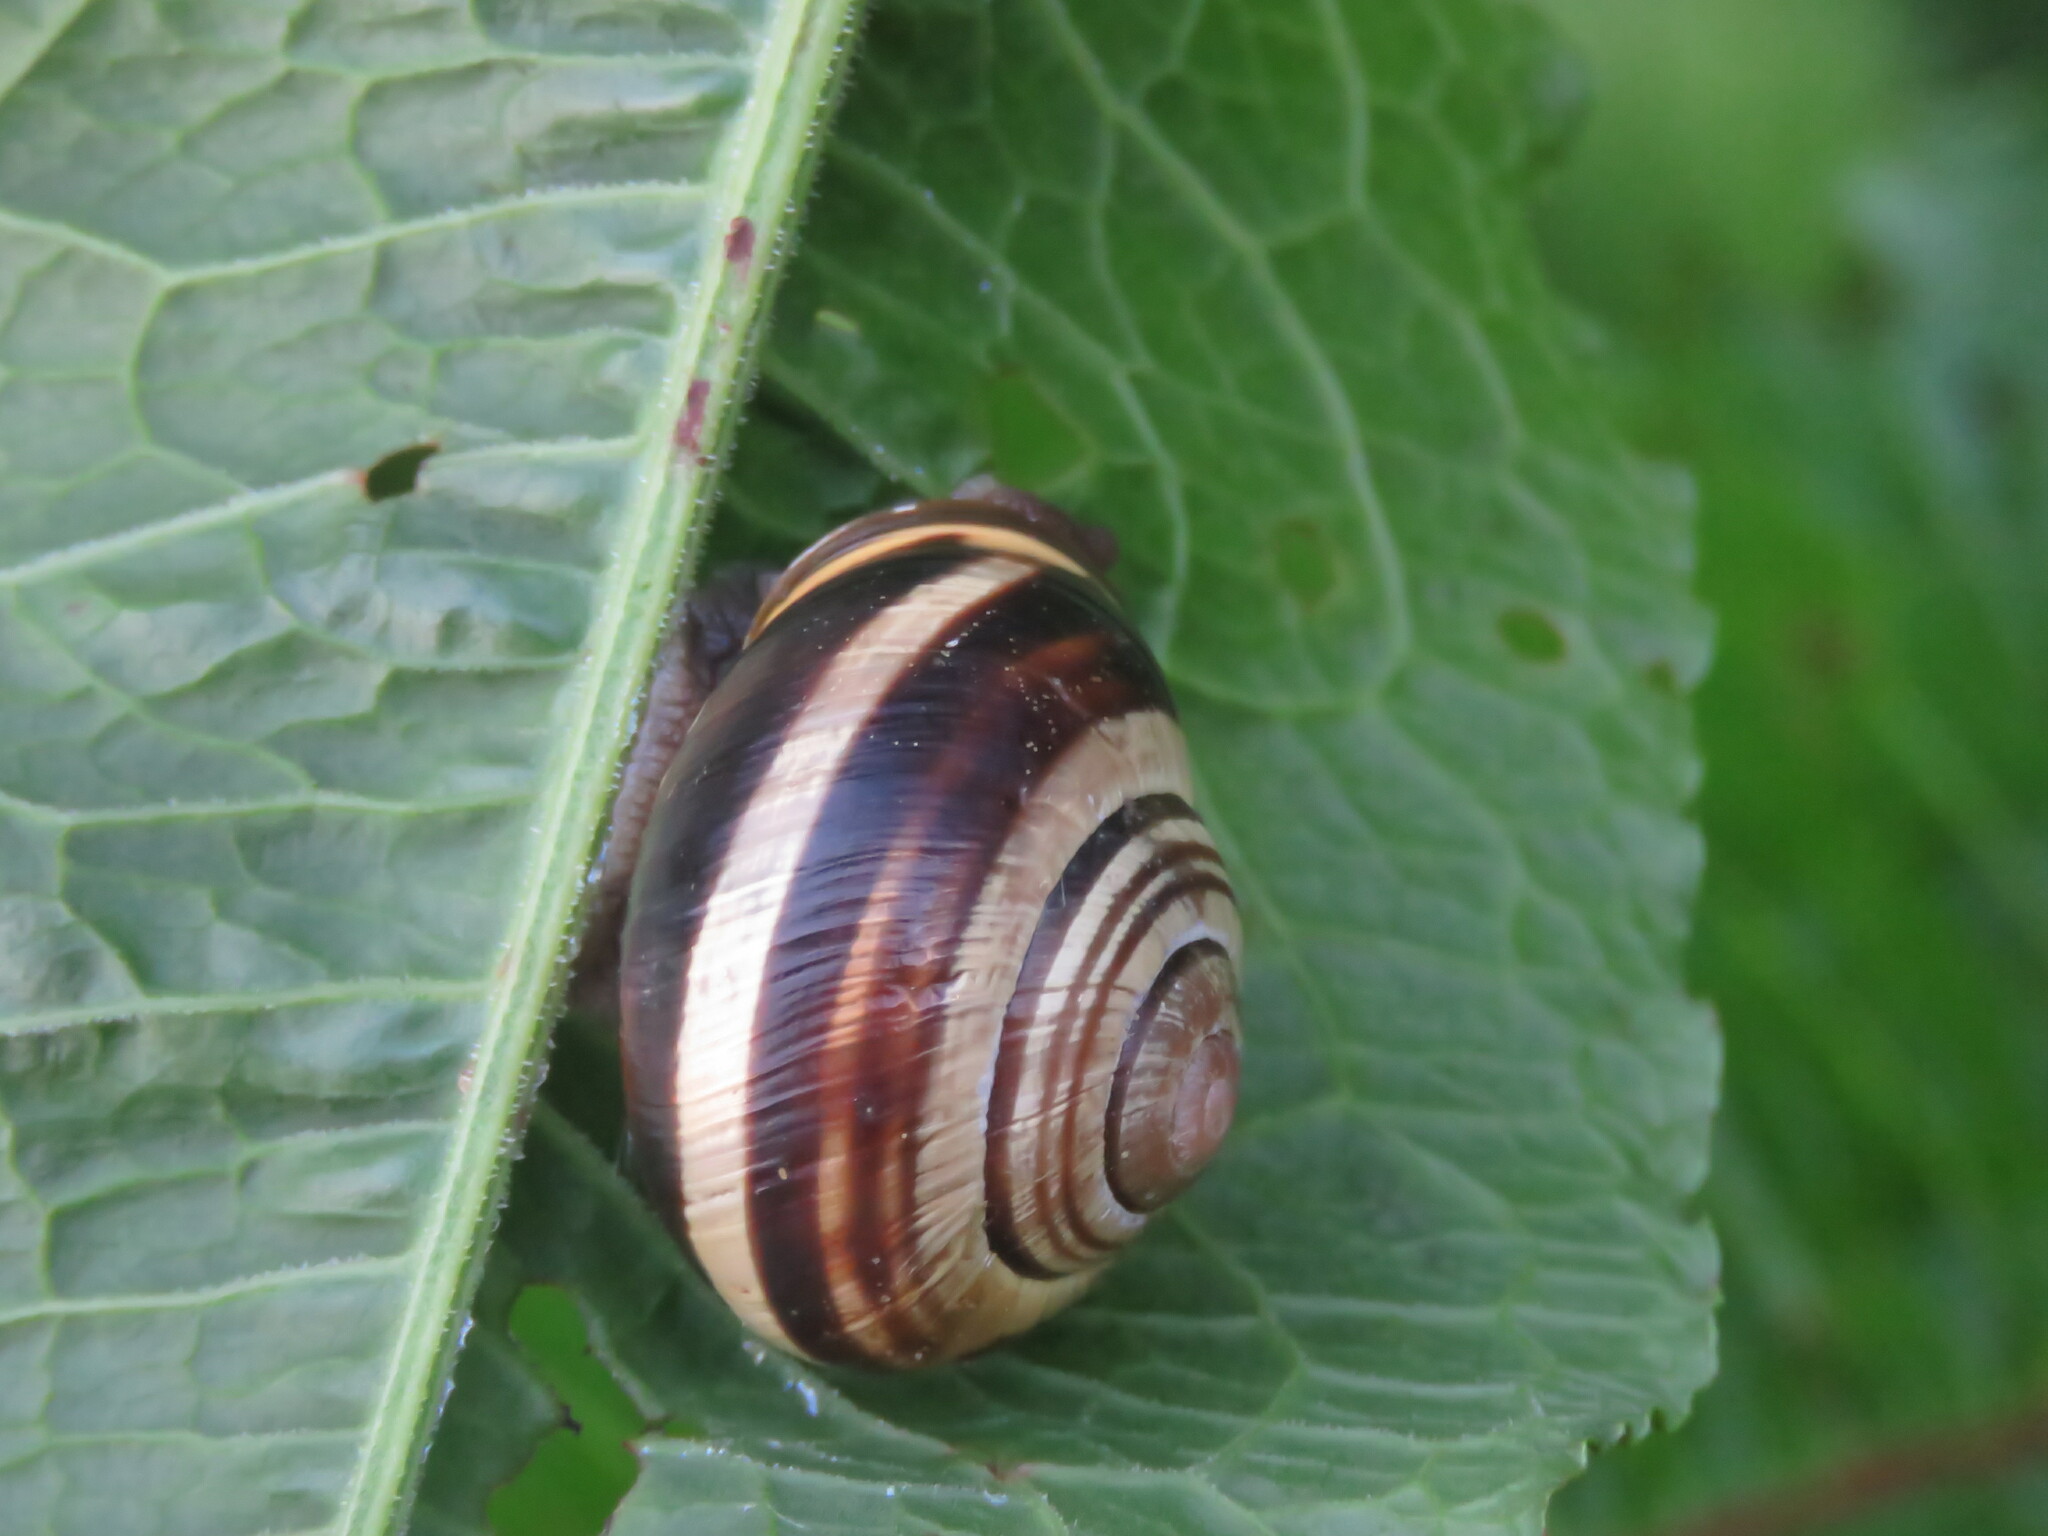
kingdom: Animalia
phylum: Mollusca
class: Gastropoda
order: Stylommatophora
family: Helicidae
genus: Cepaea
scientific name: Cepaea nemoralis
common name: Grovesnail
